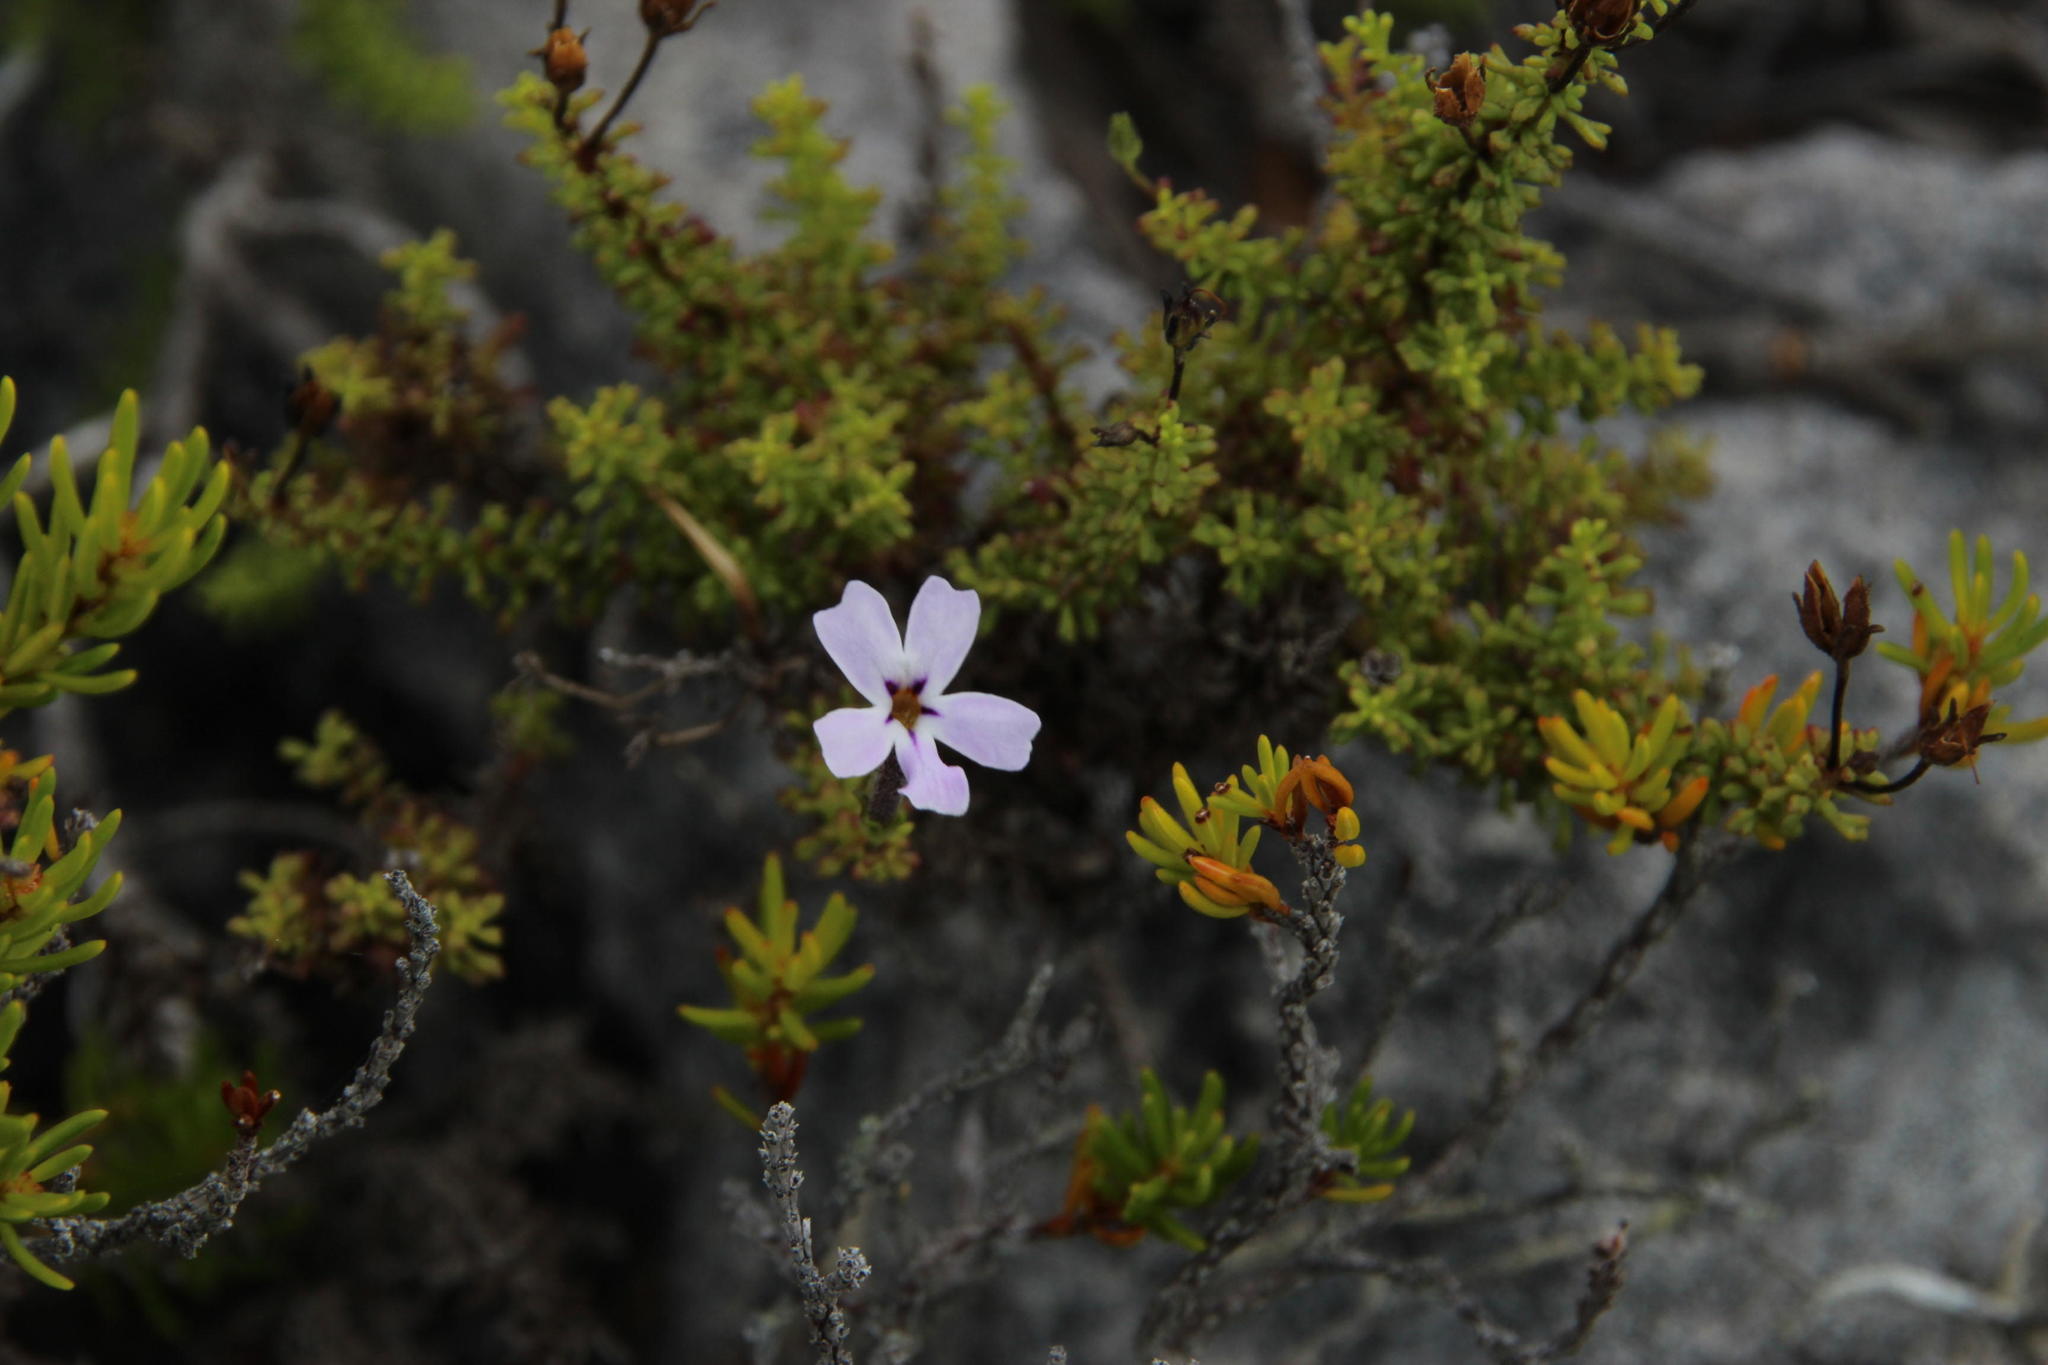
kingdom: Plantae
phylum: Tracheophyta
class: Magnoliopsida
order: Lamiales
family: Scrophulariaceae
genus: Jamesbrittenia
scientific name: Jamesbrittenia stellata
